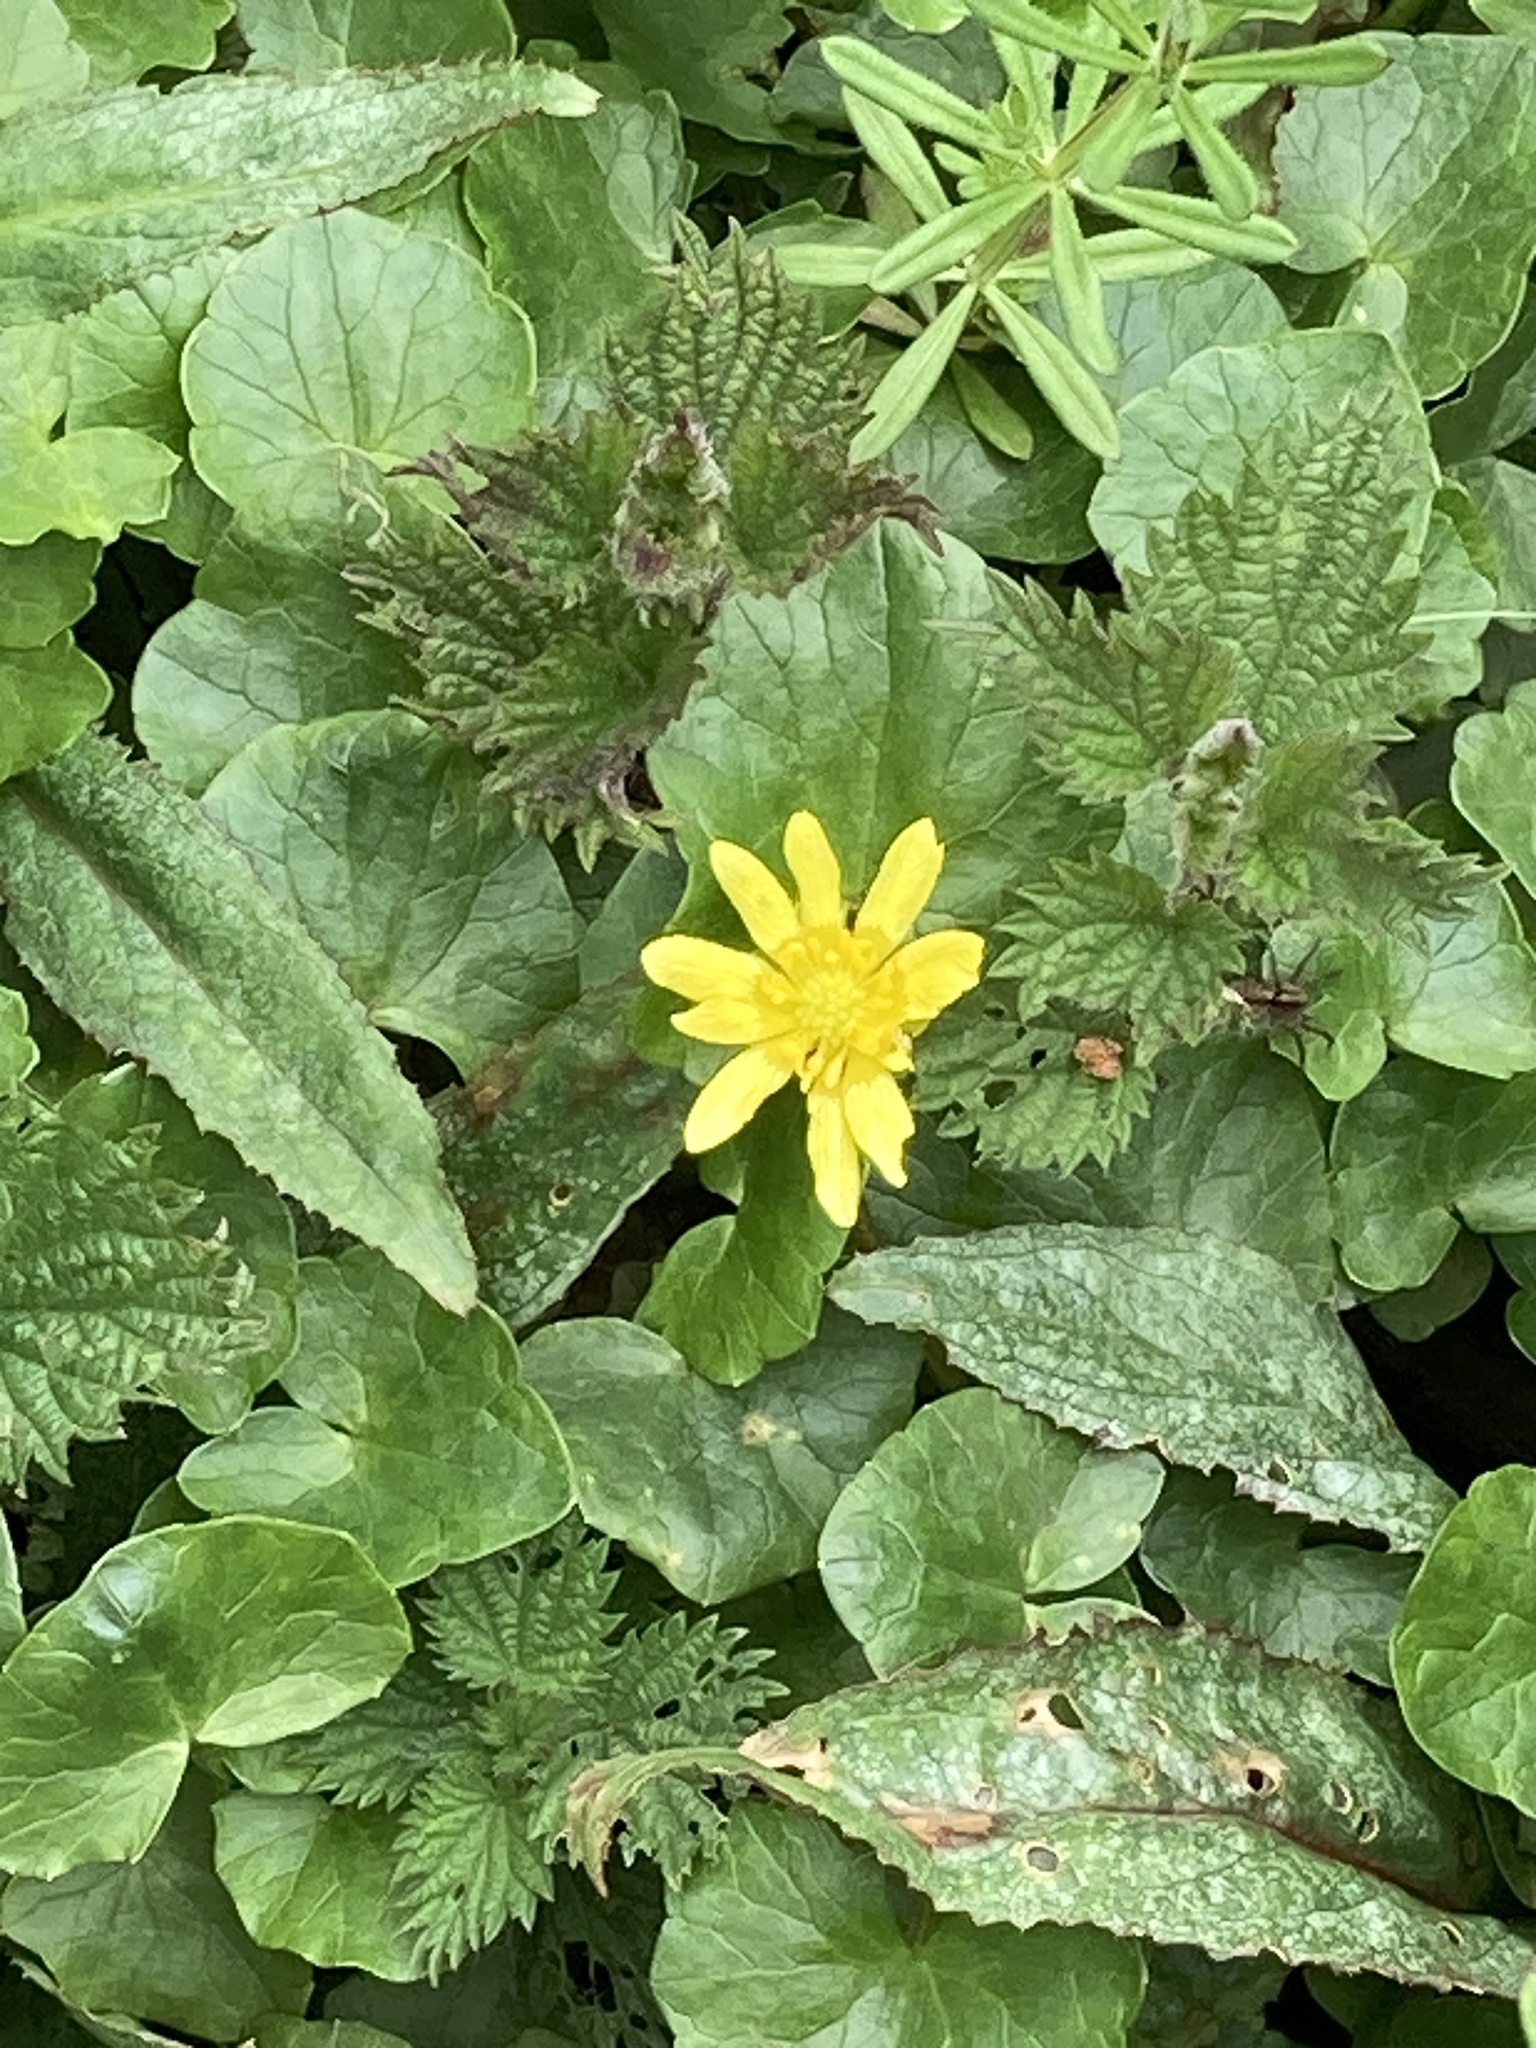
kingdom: Plantae
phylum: Tracheophyta
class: Magnoliopsida
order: Ranunculales
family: Ranunculaceae
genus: Ficaria
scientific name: Ficaria verna
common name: Lesser celandine
